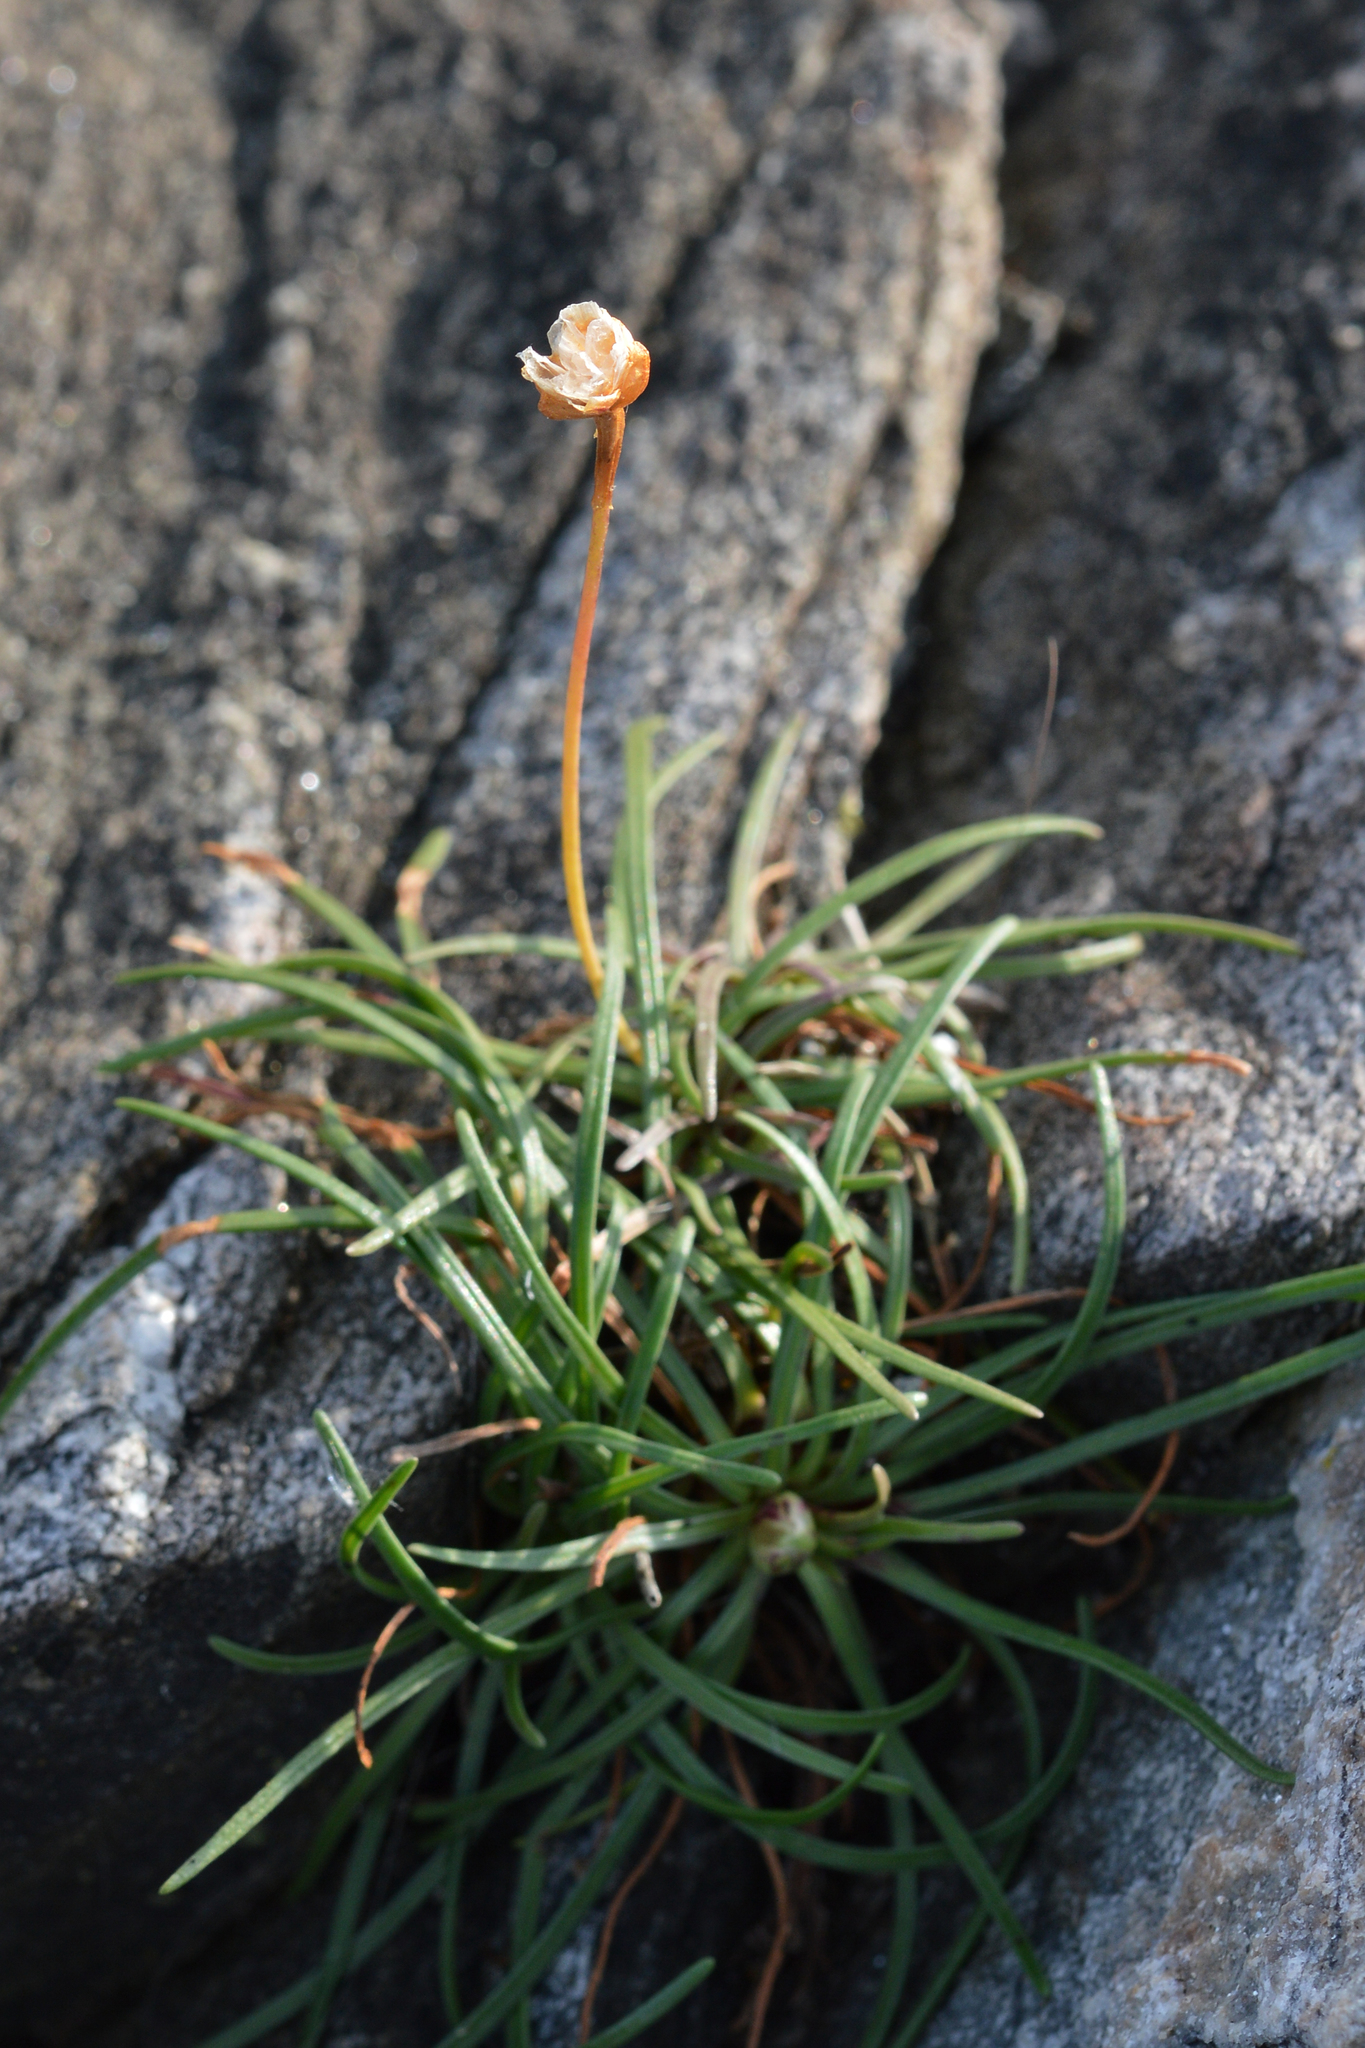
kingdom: Plantae
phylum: Tracheophyta
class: Magnoliopsida
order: Caryophyllales
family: Plumbaginaceae
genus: Armeria
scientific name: Armeria maritima
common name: Thrift
